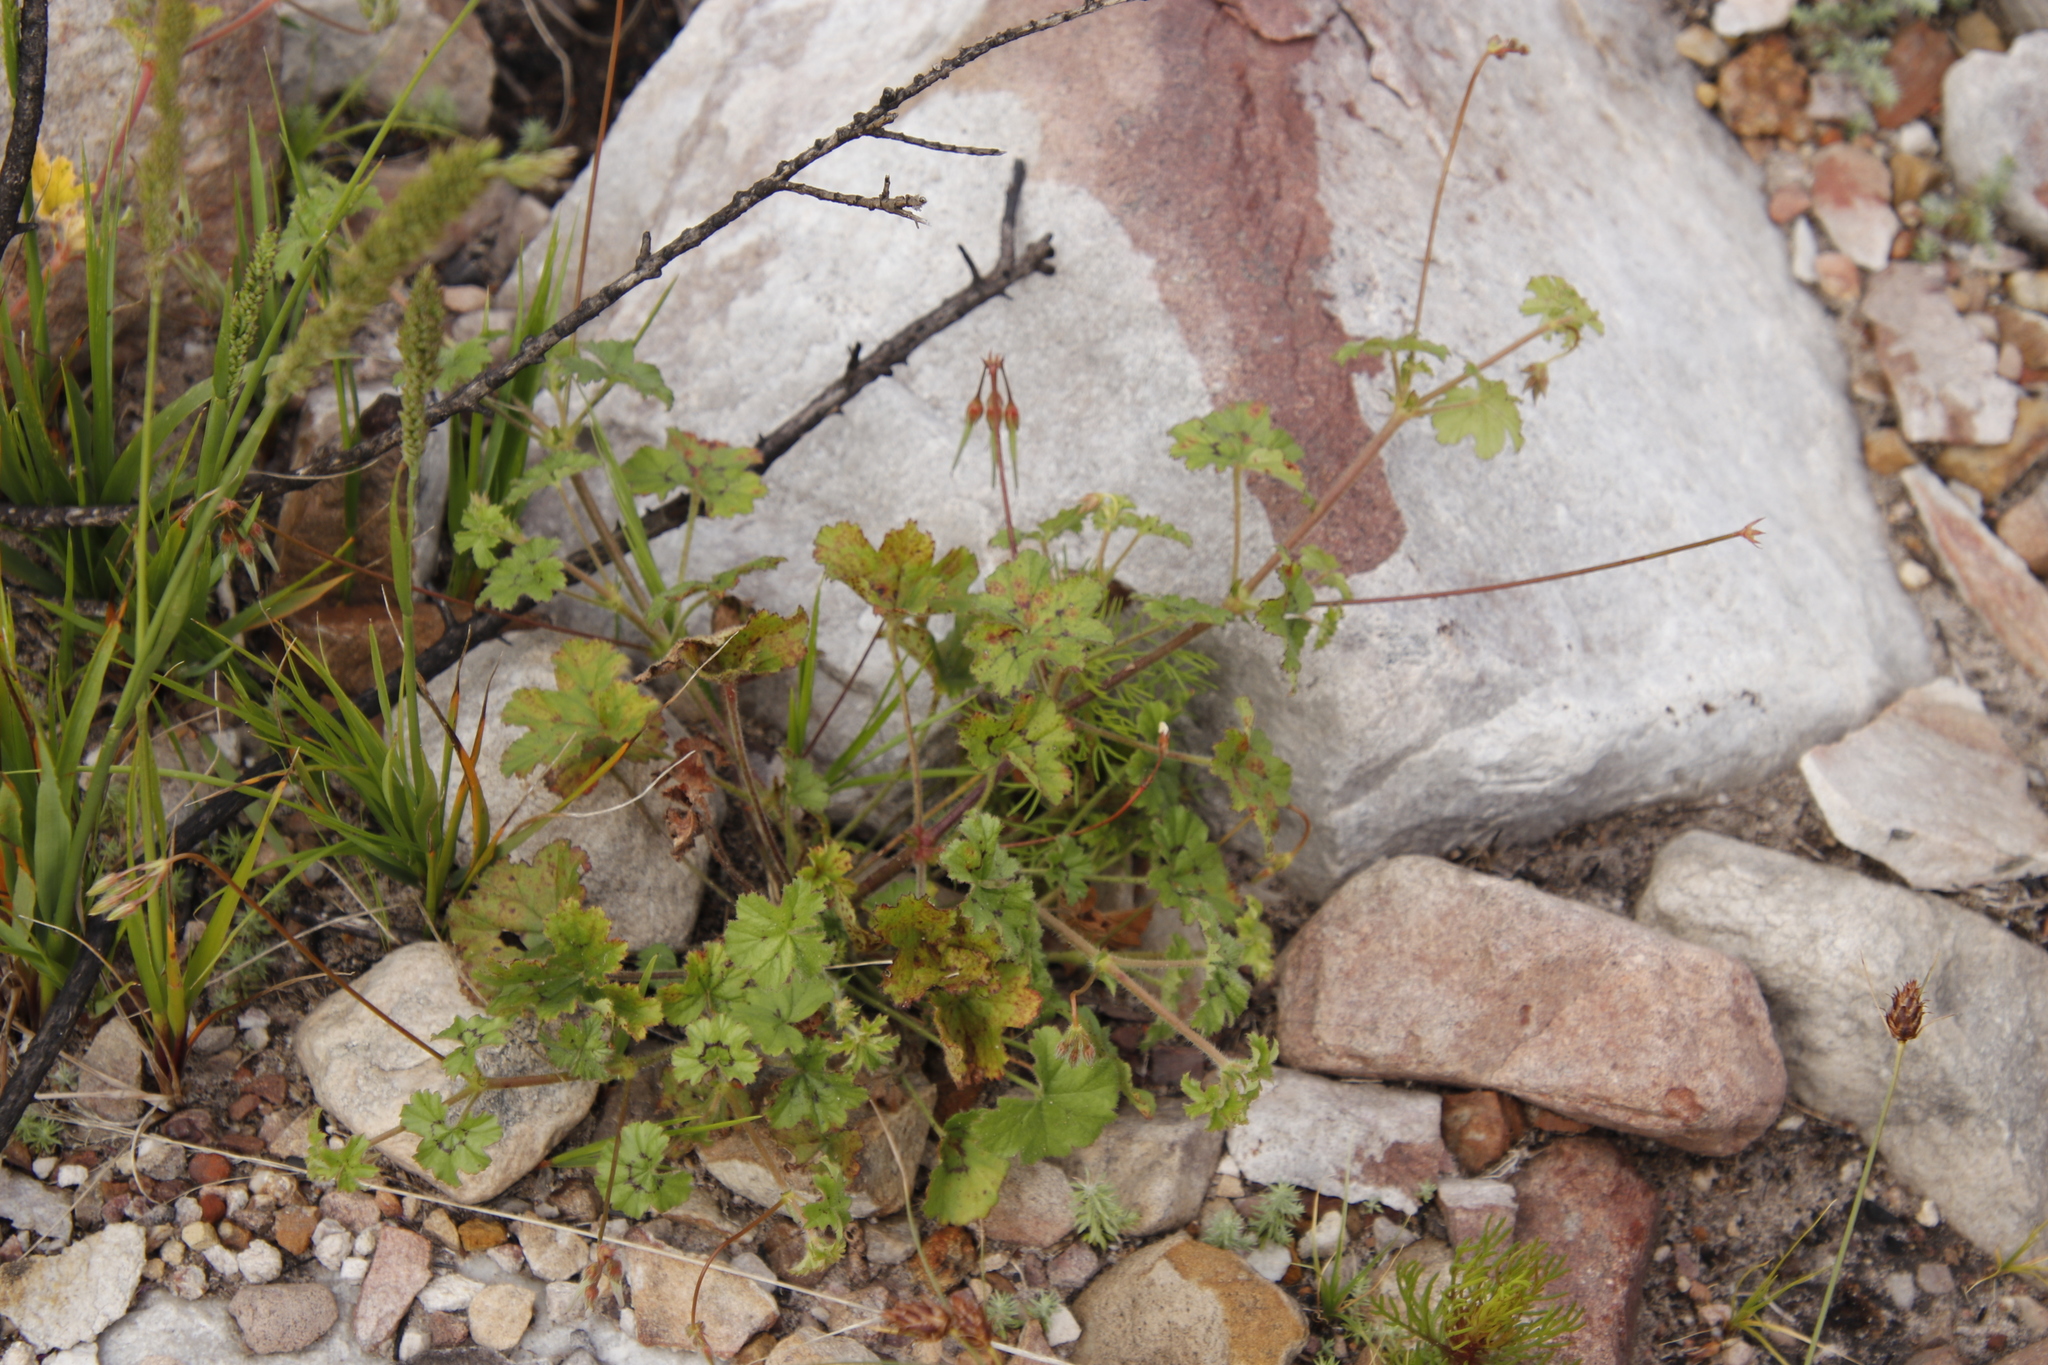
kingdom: Plantae
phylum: Tracheophyta
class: Magnoliopsida
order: Geraniales
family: Geraniaceae
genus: Pelargonium
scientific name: Pelargonium elongatum
